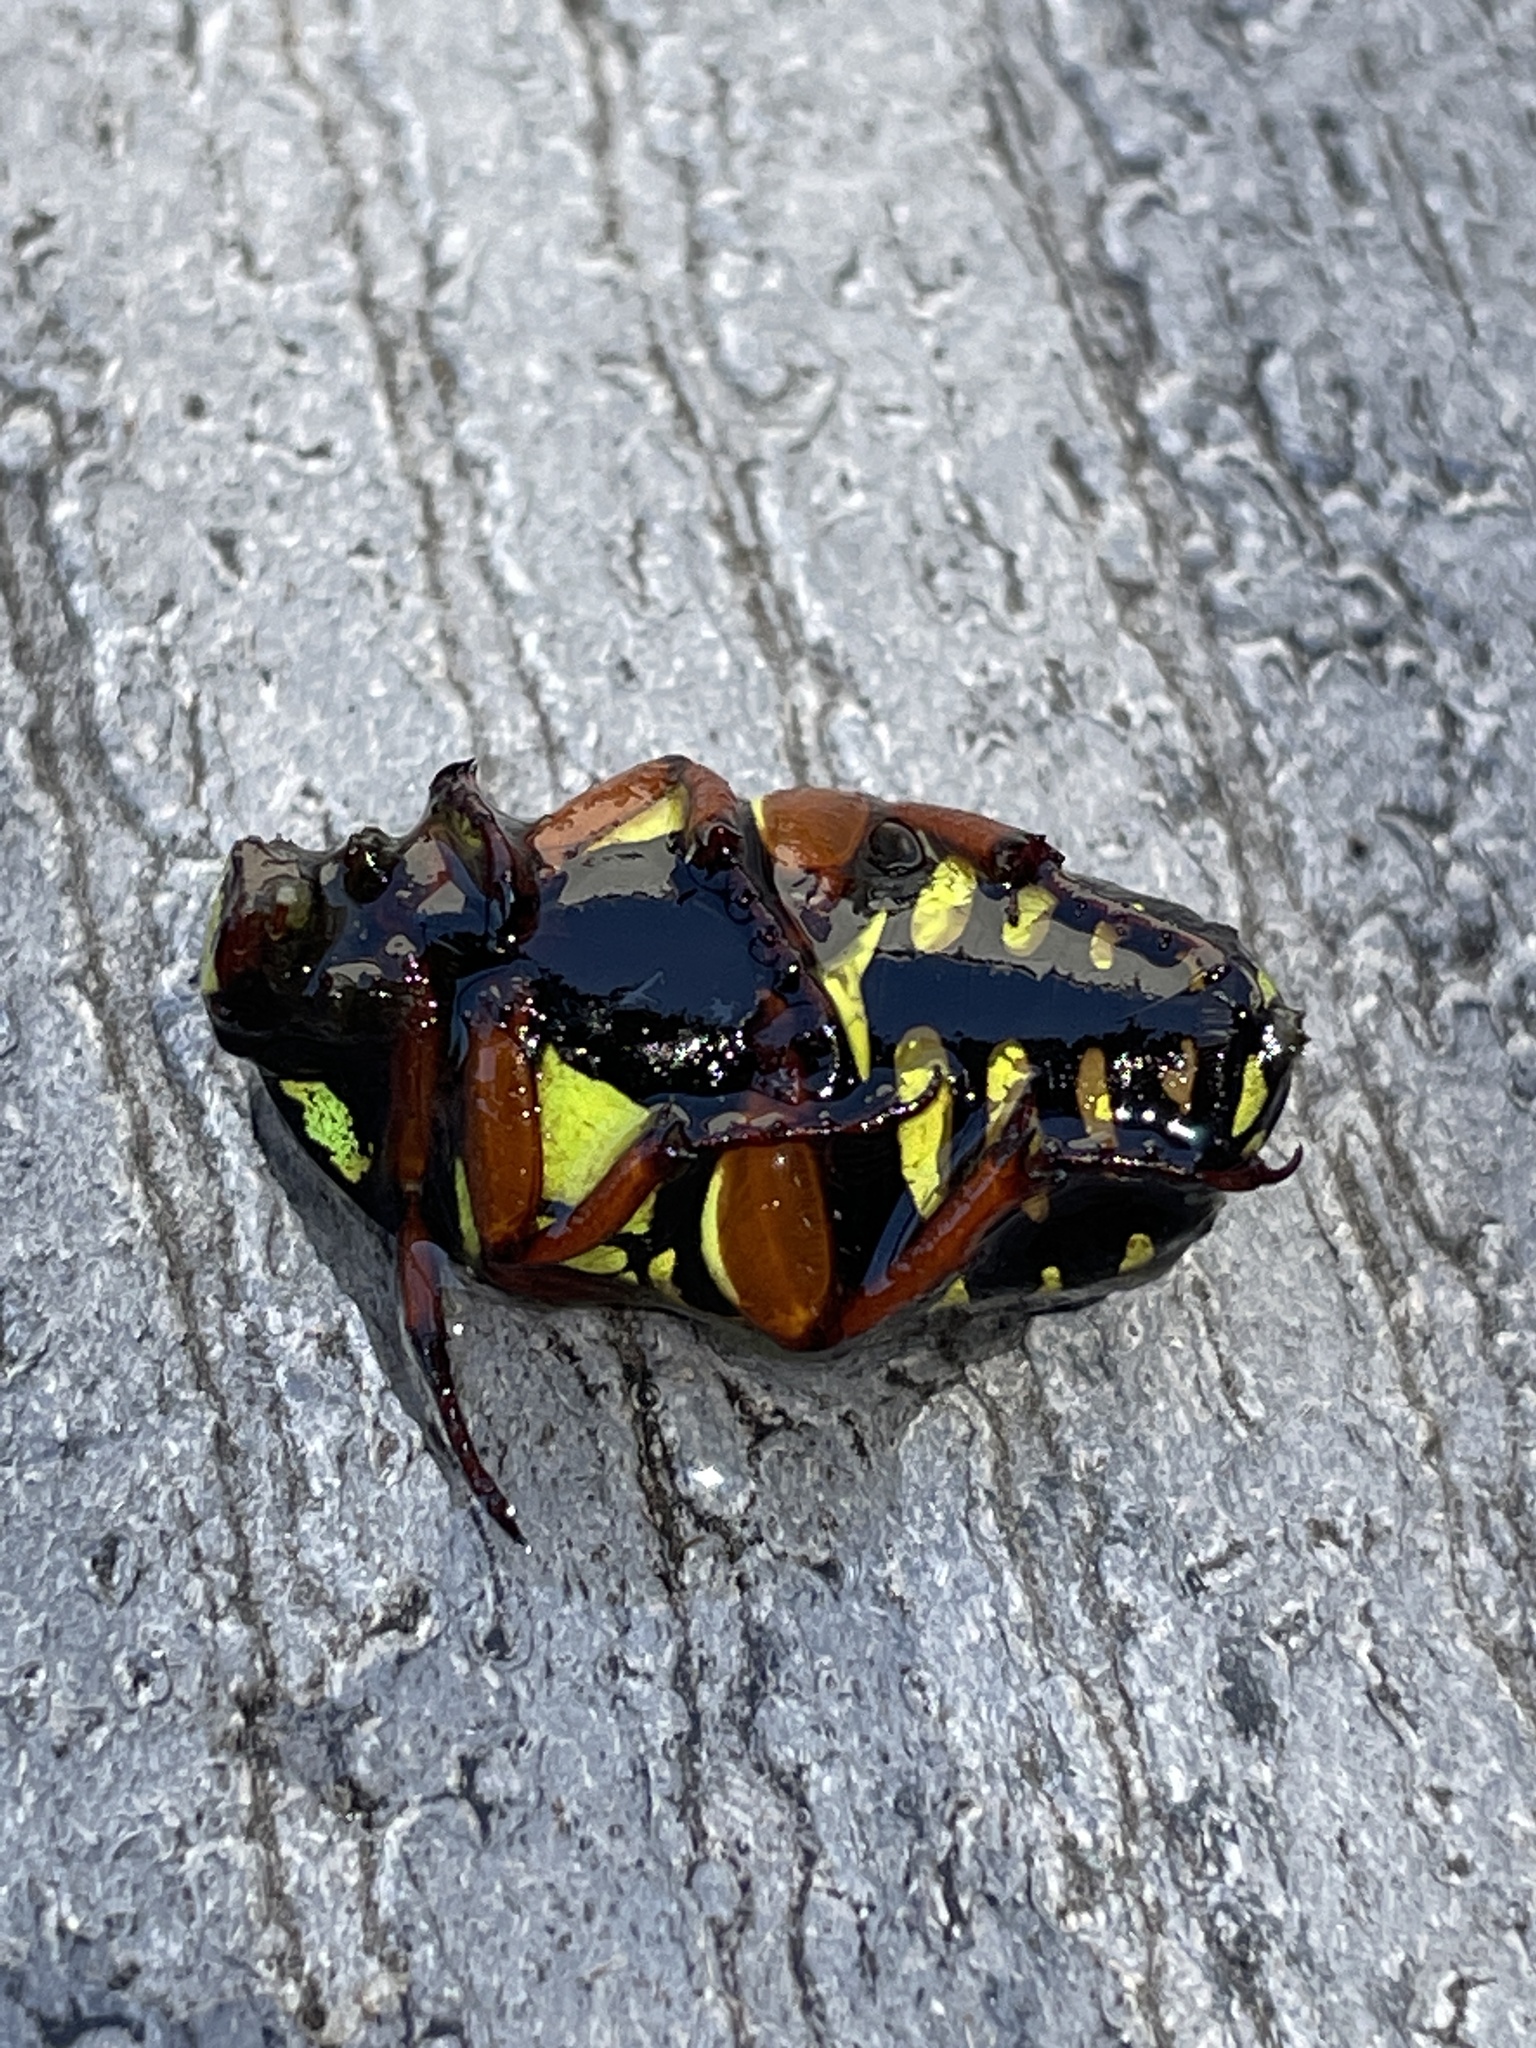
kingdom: Animalia
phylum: Arthropoda
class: Insecta
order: Coleoptera
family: Scarabaeidae
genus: Eupoecila
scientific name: Eupoecila australasiae
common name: Fiddler beetle
